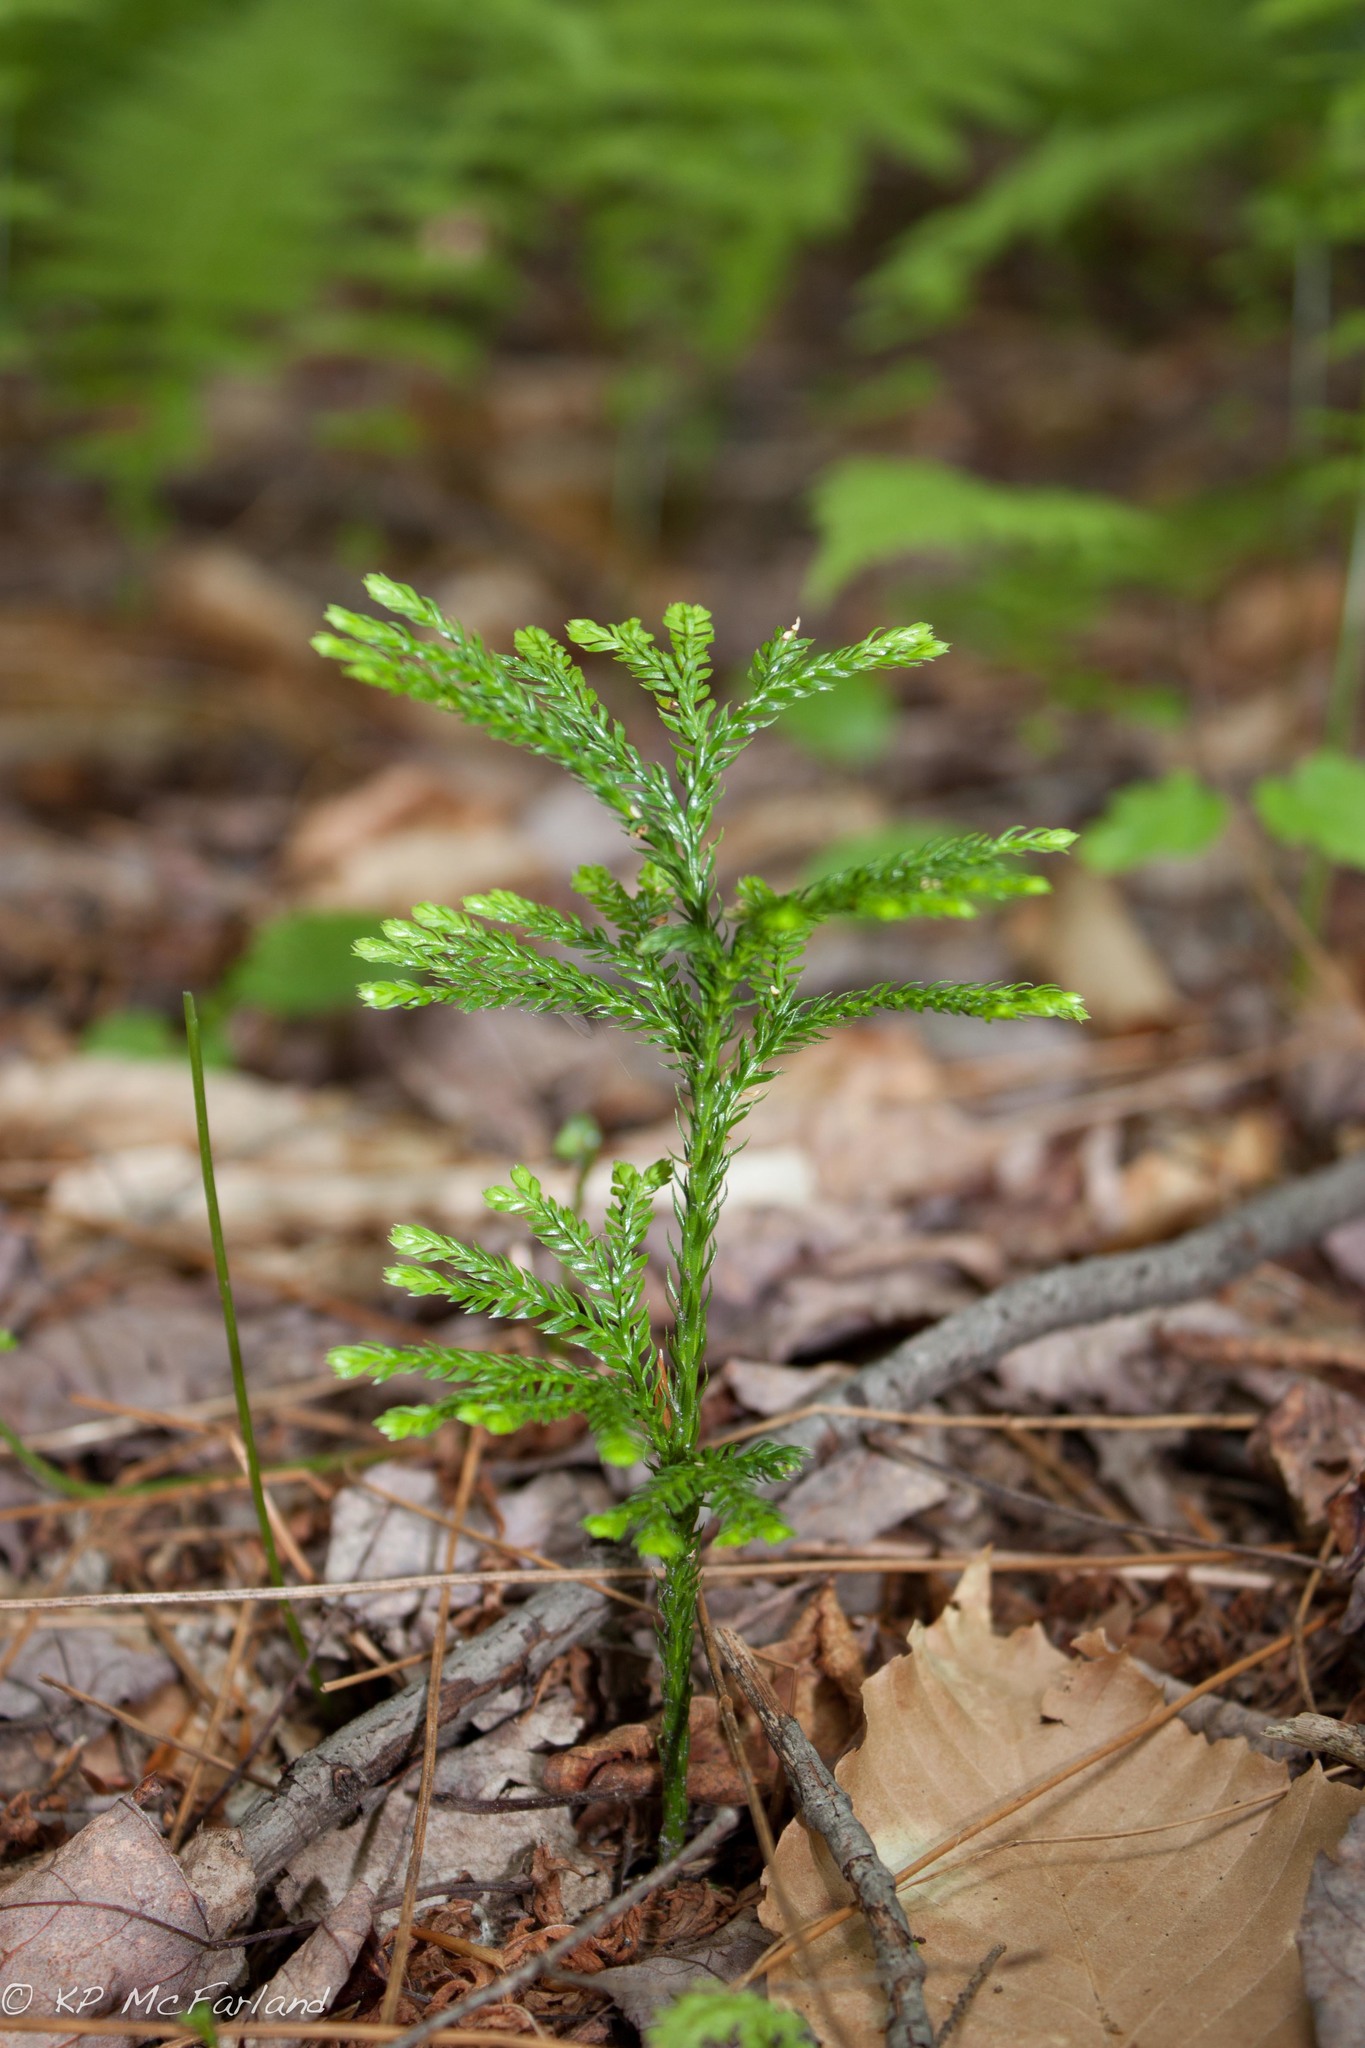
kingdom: Plantae
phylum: Tracheophyta
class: Lycopodiopsida
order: Lycopodiales
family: Lycopodiaceae
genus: Dendrolycopodium
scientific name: Dendrolycopodium obscurum
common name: Common ground-pine
